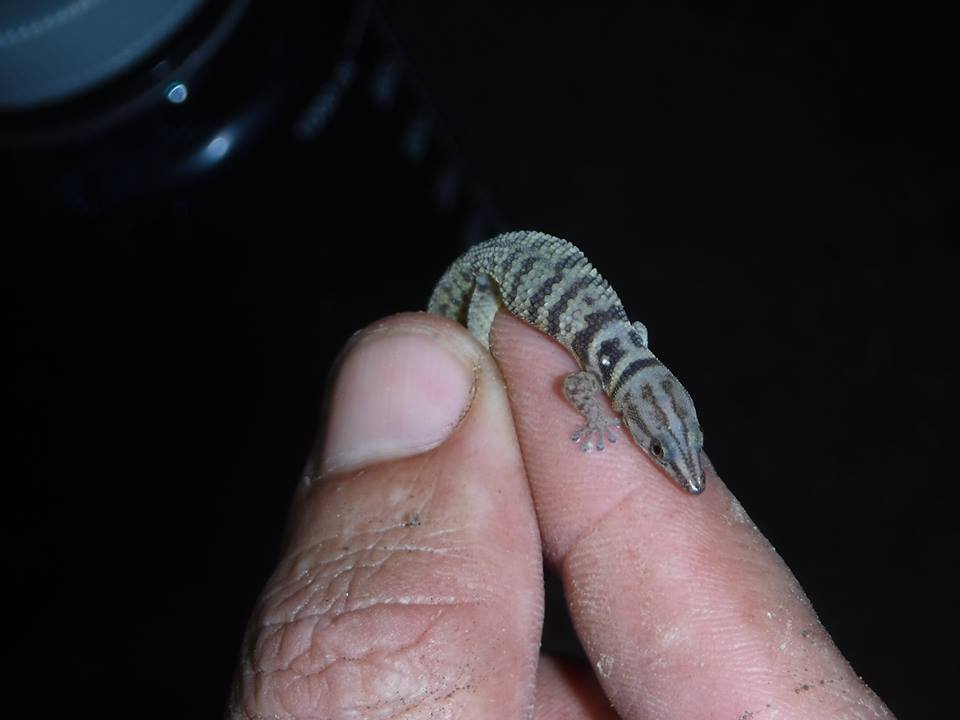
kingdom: Animalia
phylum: Chordata
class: Squamata
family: Sphaerodactylidae
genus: Sphaerodactylus
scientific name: Sphaerodactylus richardi
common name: Zapata big-scaled sphaero
